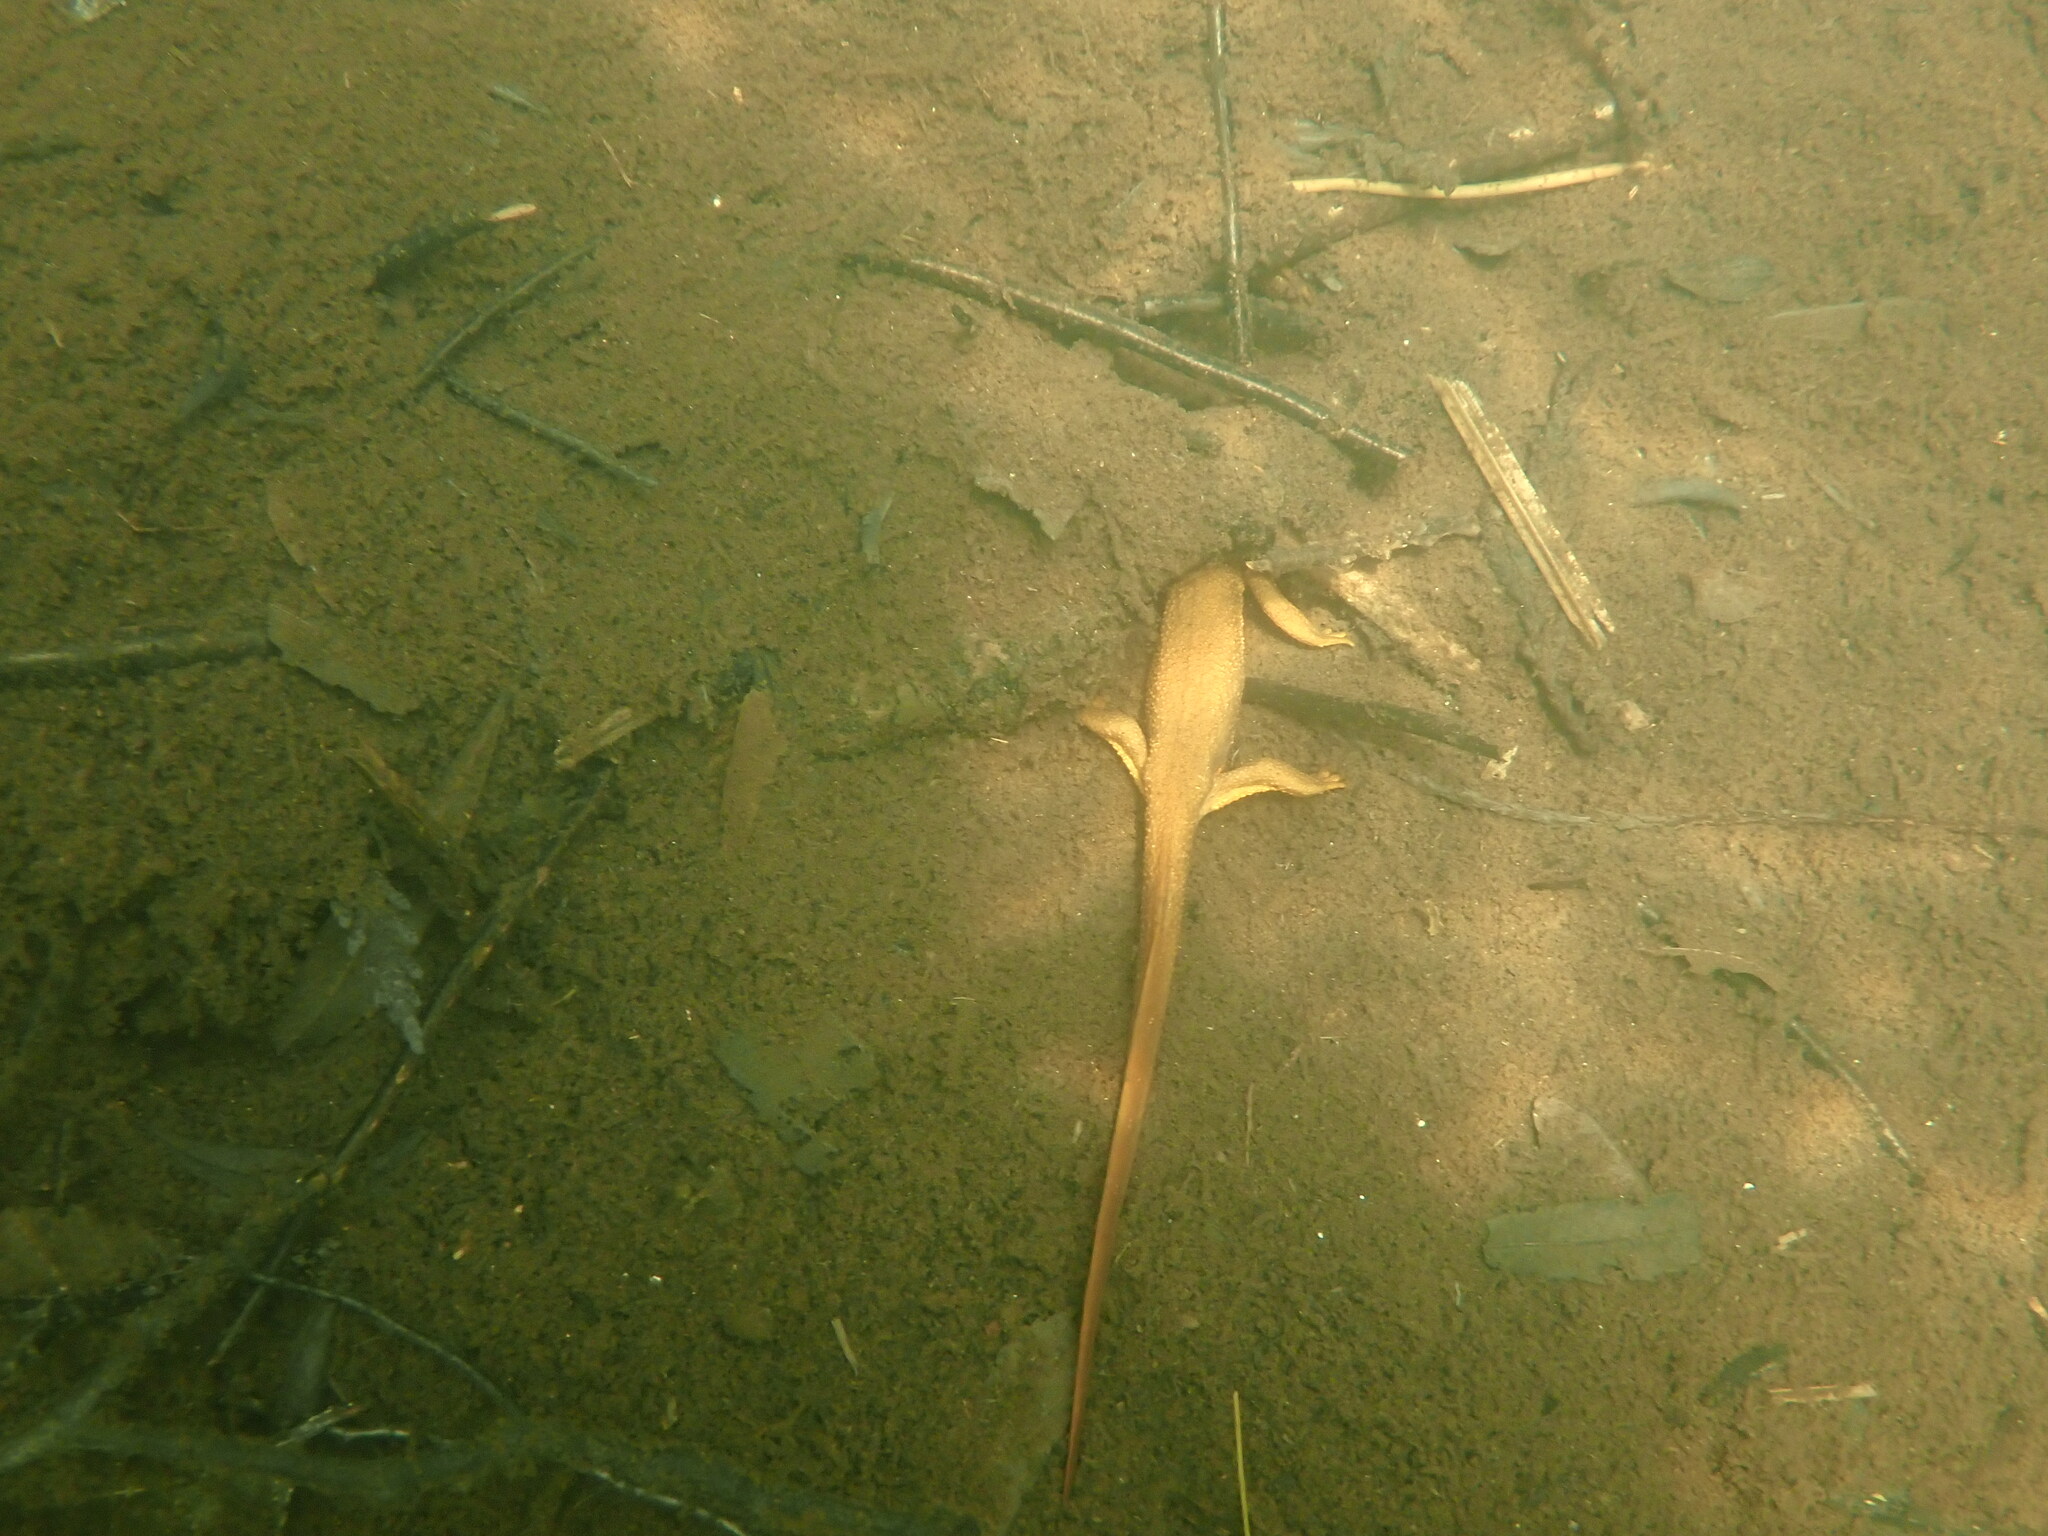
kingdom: Animalia
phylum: Chordata
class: Amphibia
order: Caudata
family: Salamandridae
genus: Taricha
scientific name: Taricha granulosa
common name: Roughskin newt
